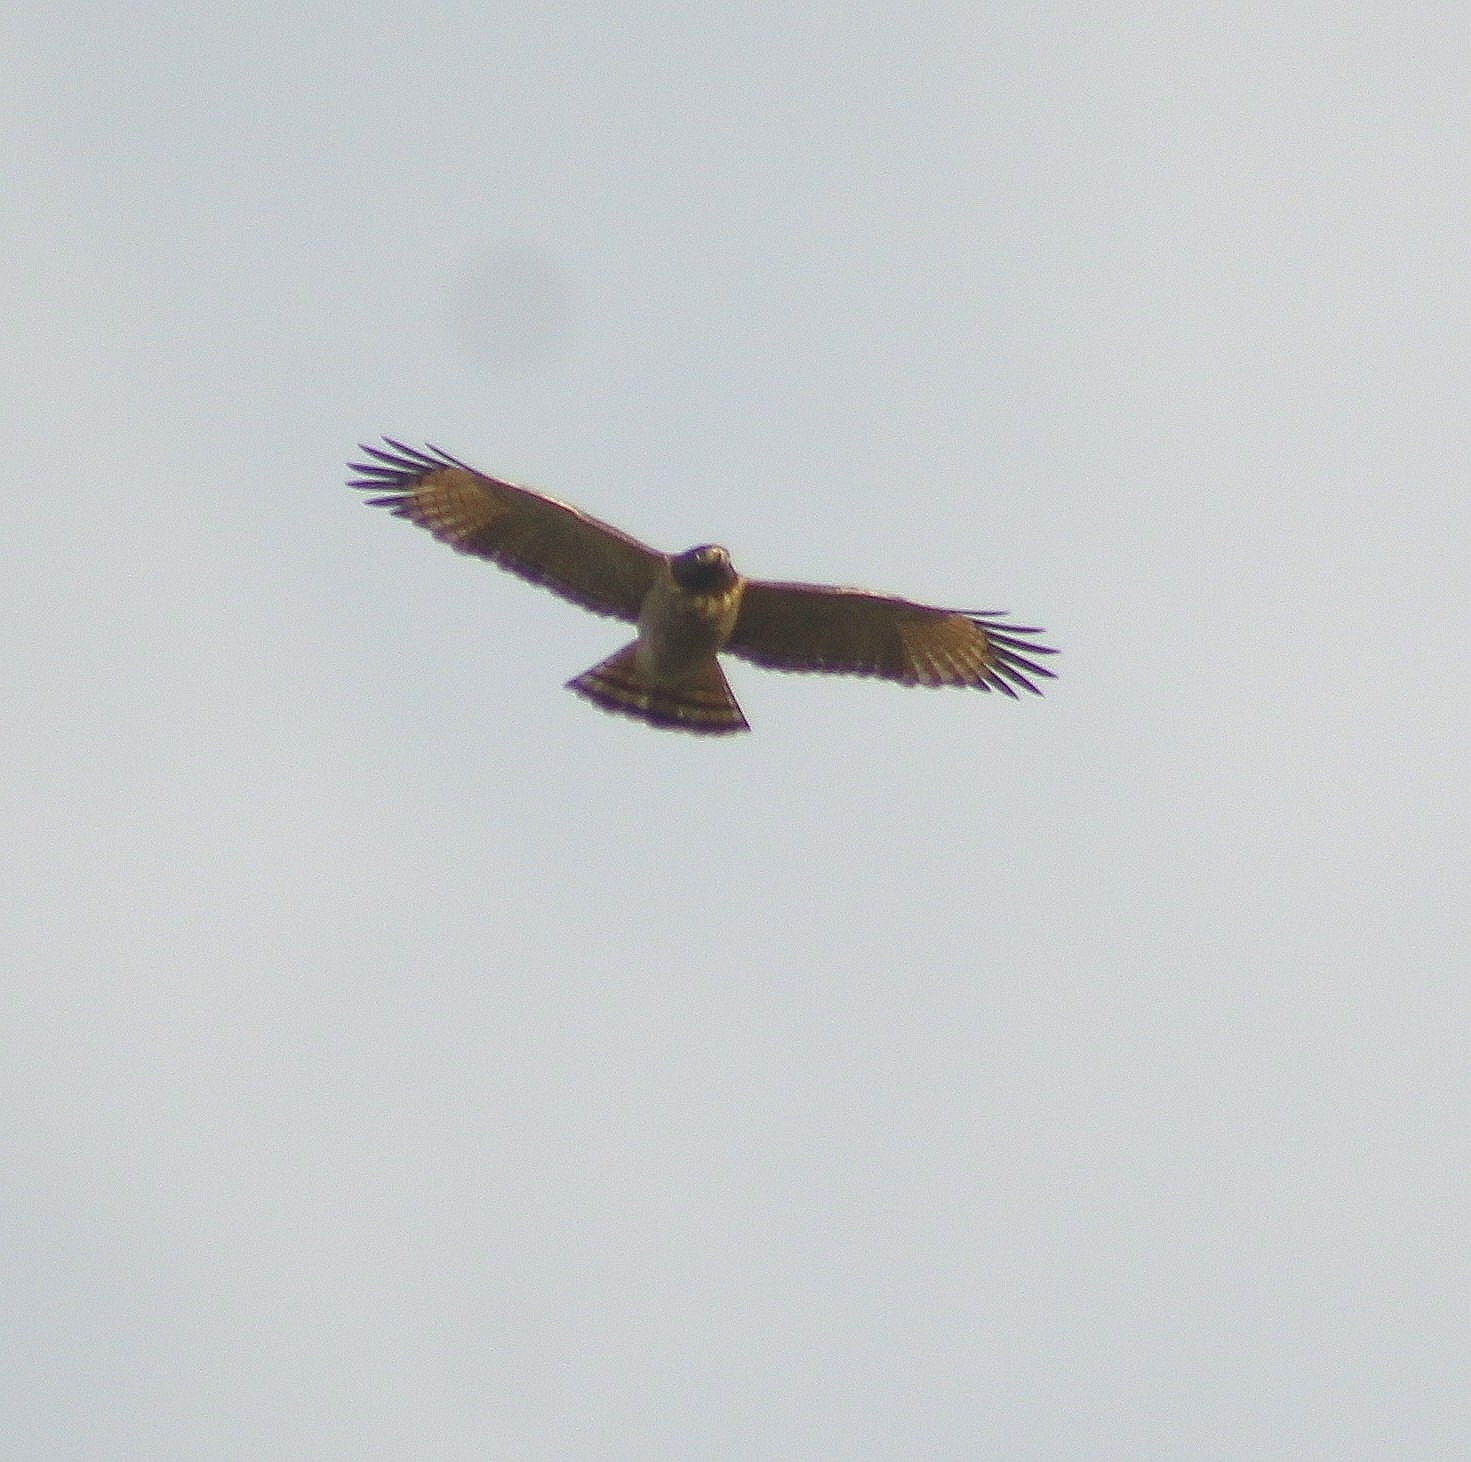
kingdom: Animalia
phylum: Chordata
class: Aves
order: Accipitriformes
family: Accipitridae
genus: Rupornis
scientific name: Rupornis magnirostris
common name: Roadside hawk
